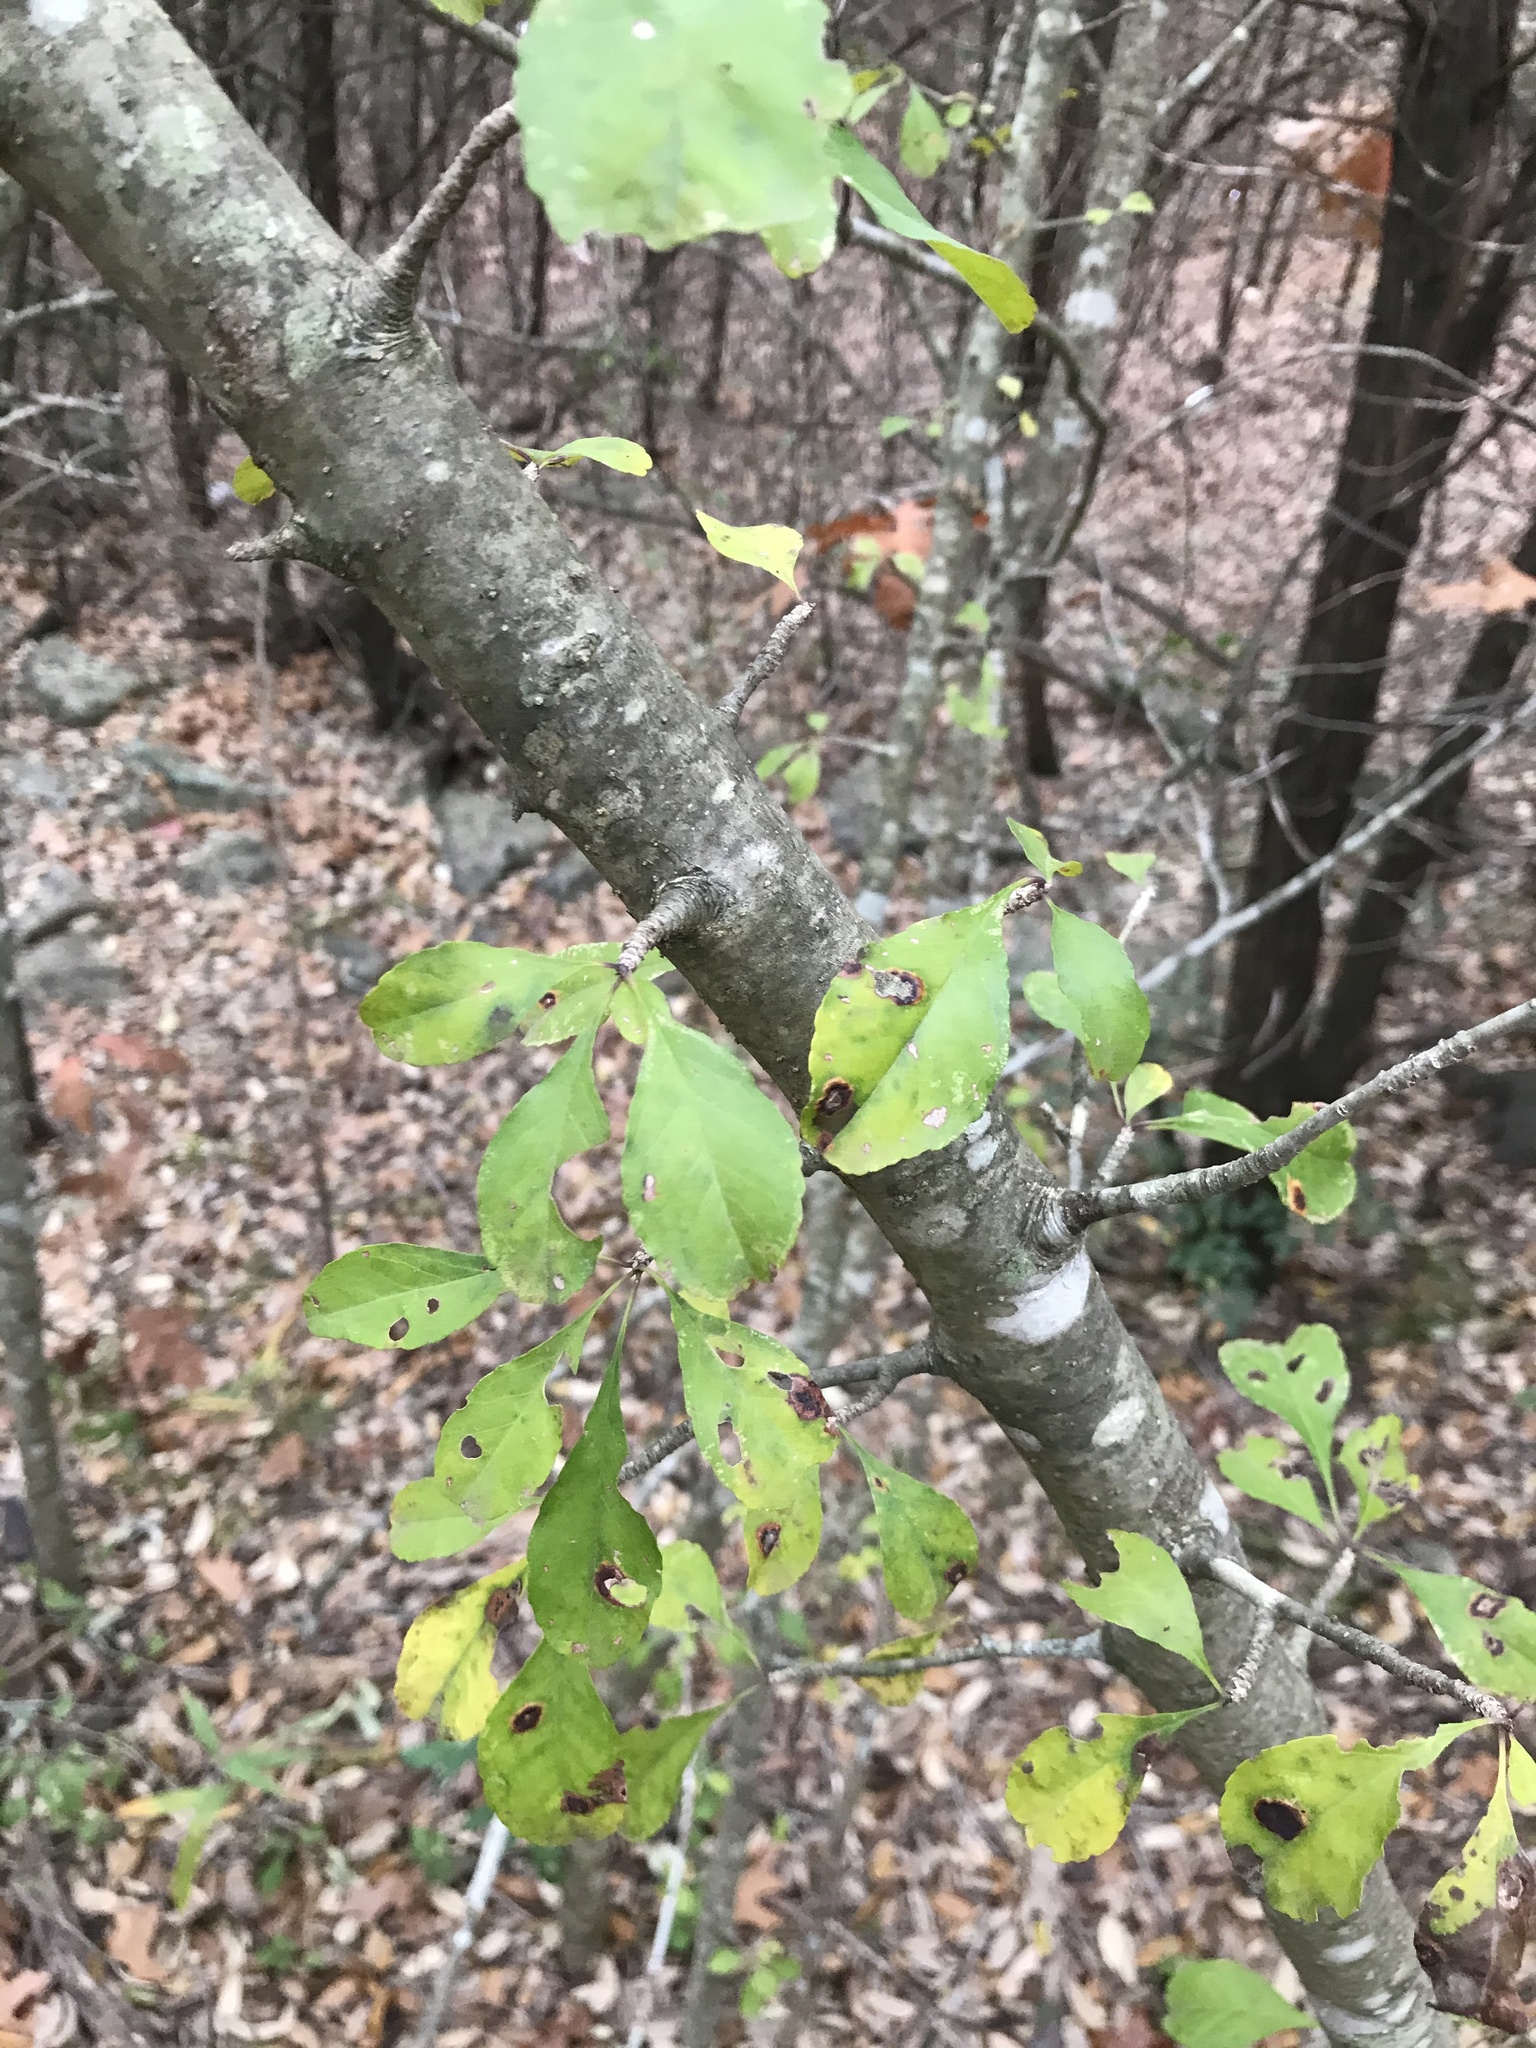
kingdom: Plantae
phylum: Tracheophyta
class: Magnoliopsida
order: Aquifoliales
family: Aquifoliaceae
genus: Ilex
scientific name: Ilex decidua
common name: Possum-haw
